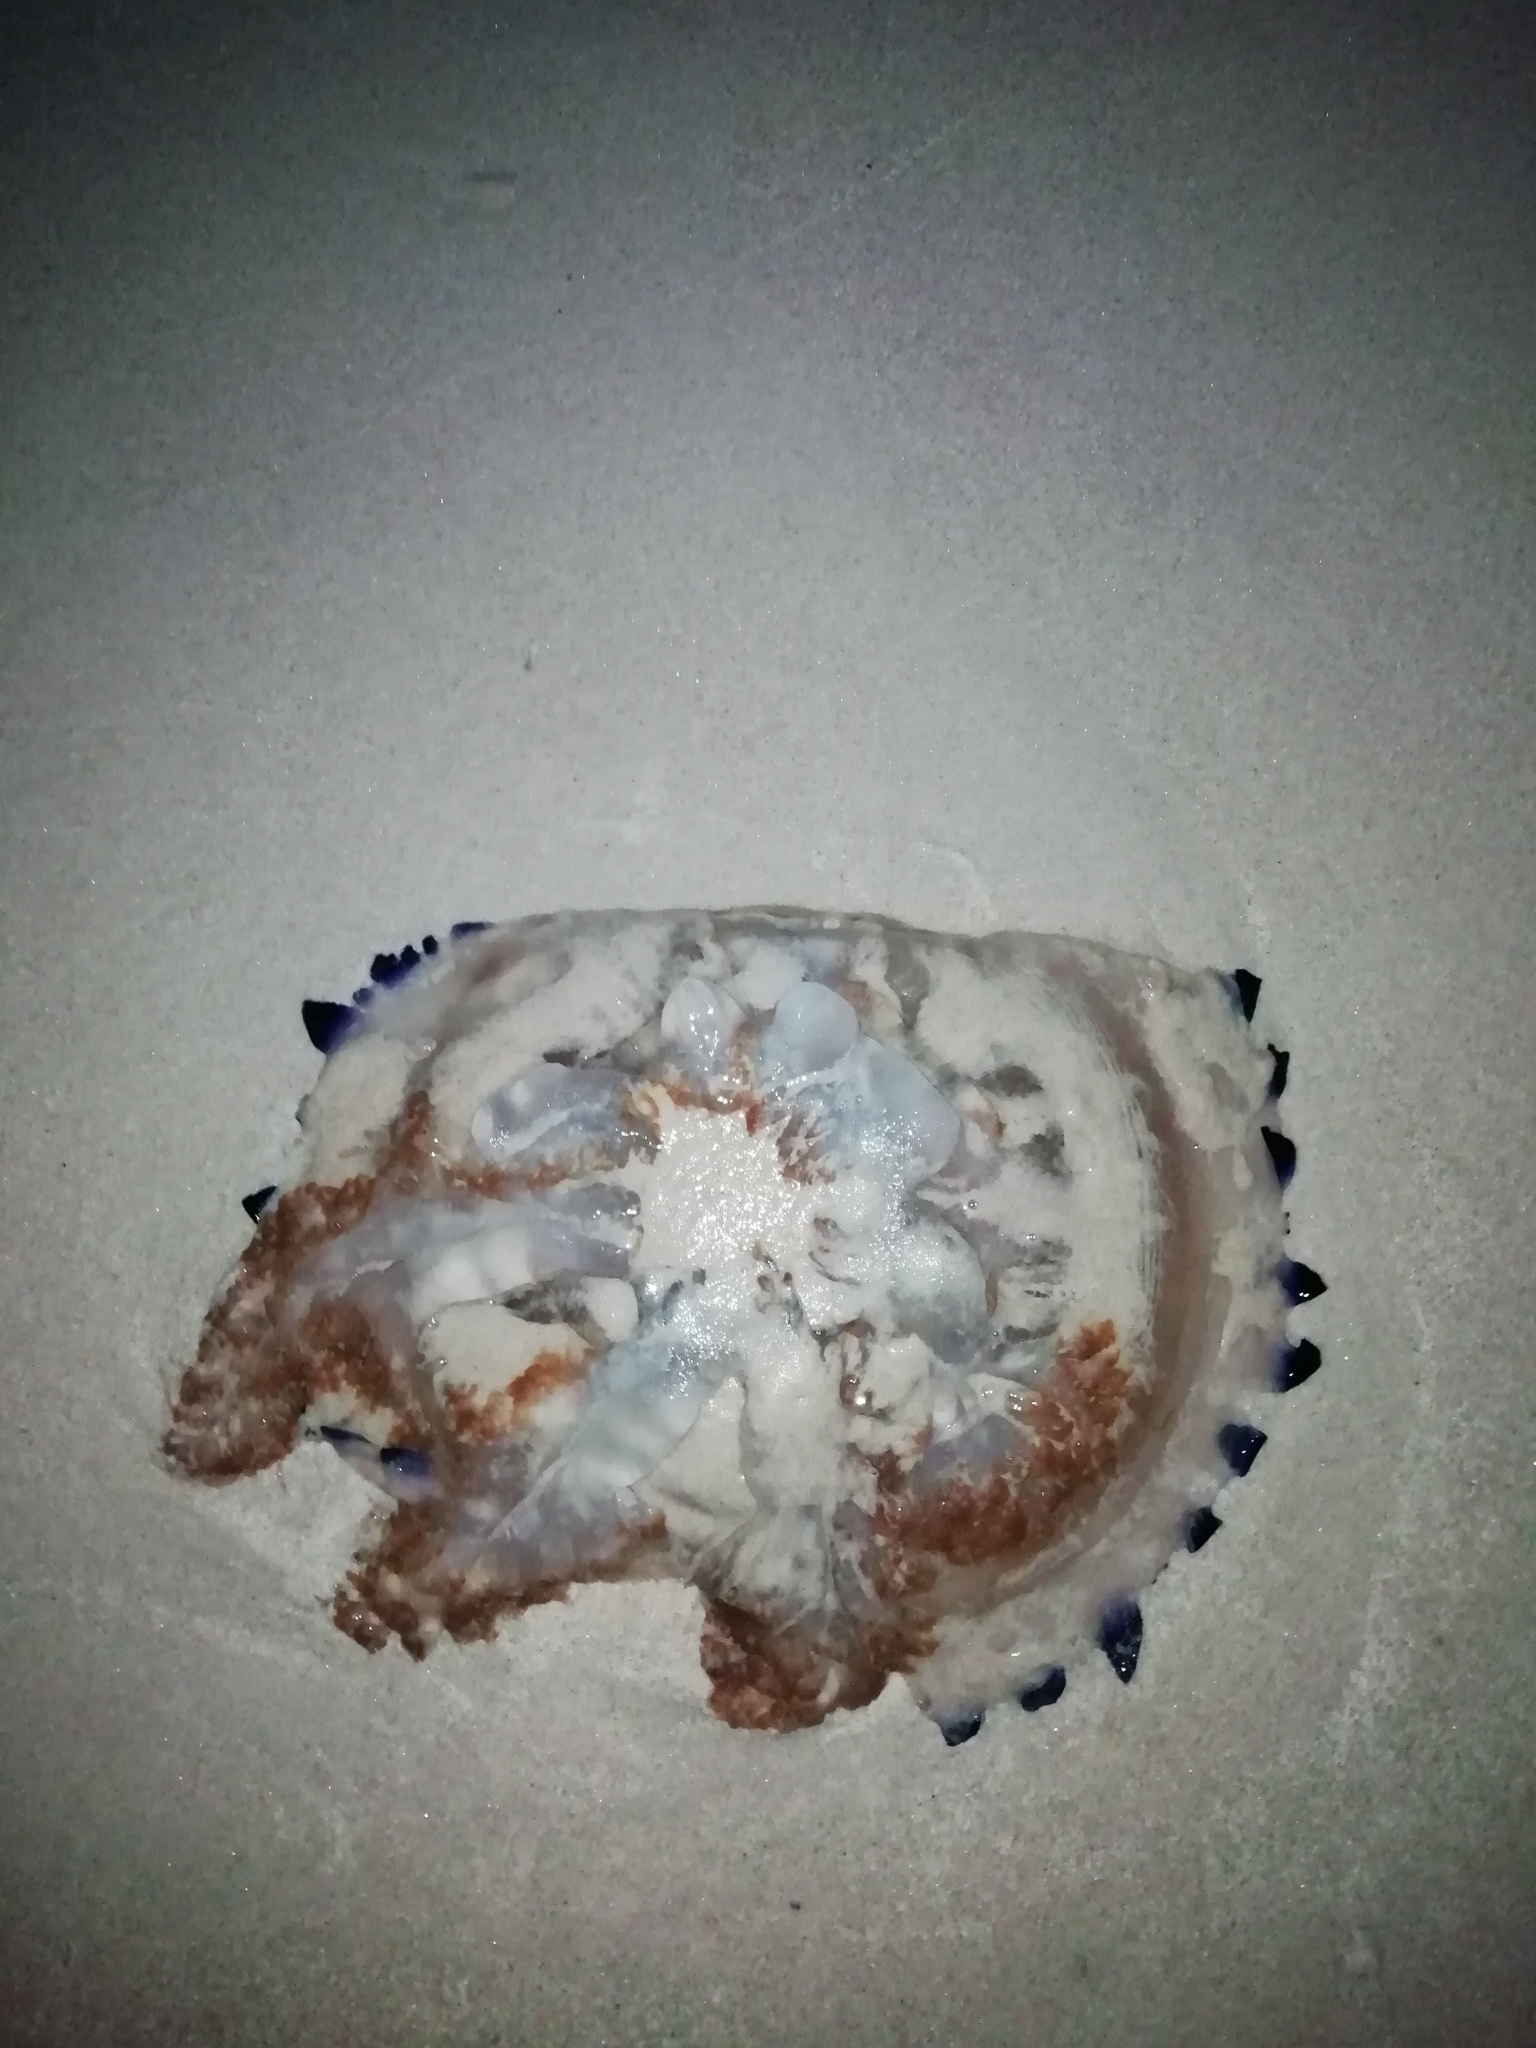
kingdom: Animalia
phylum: Cnidaria
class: Scyphozoa
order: Rhizostomeae
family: Lychnorhizidae
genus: Lychnorhiza
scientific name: Lychnorhiza lucerna
